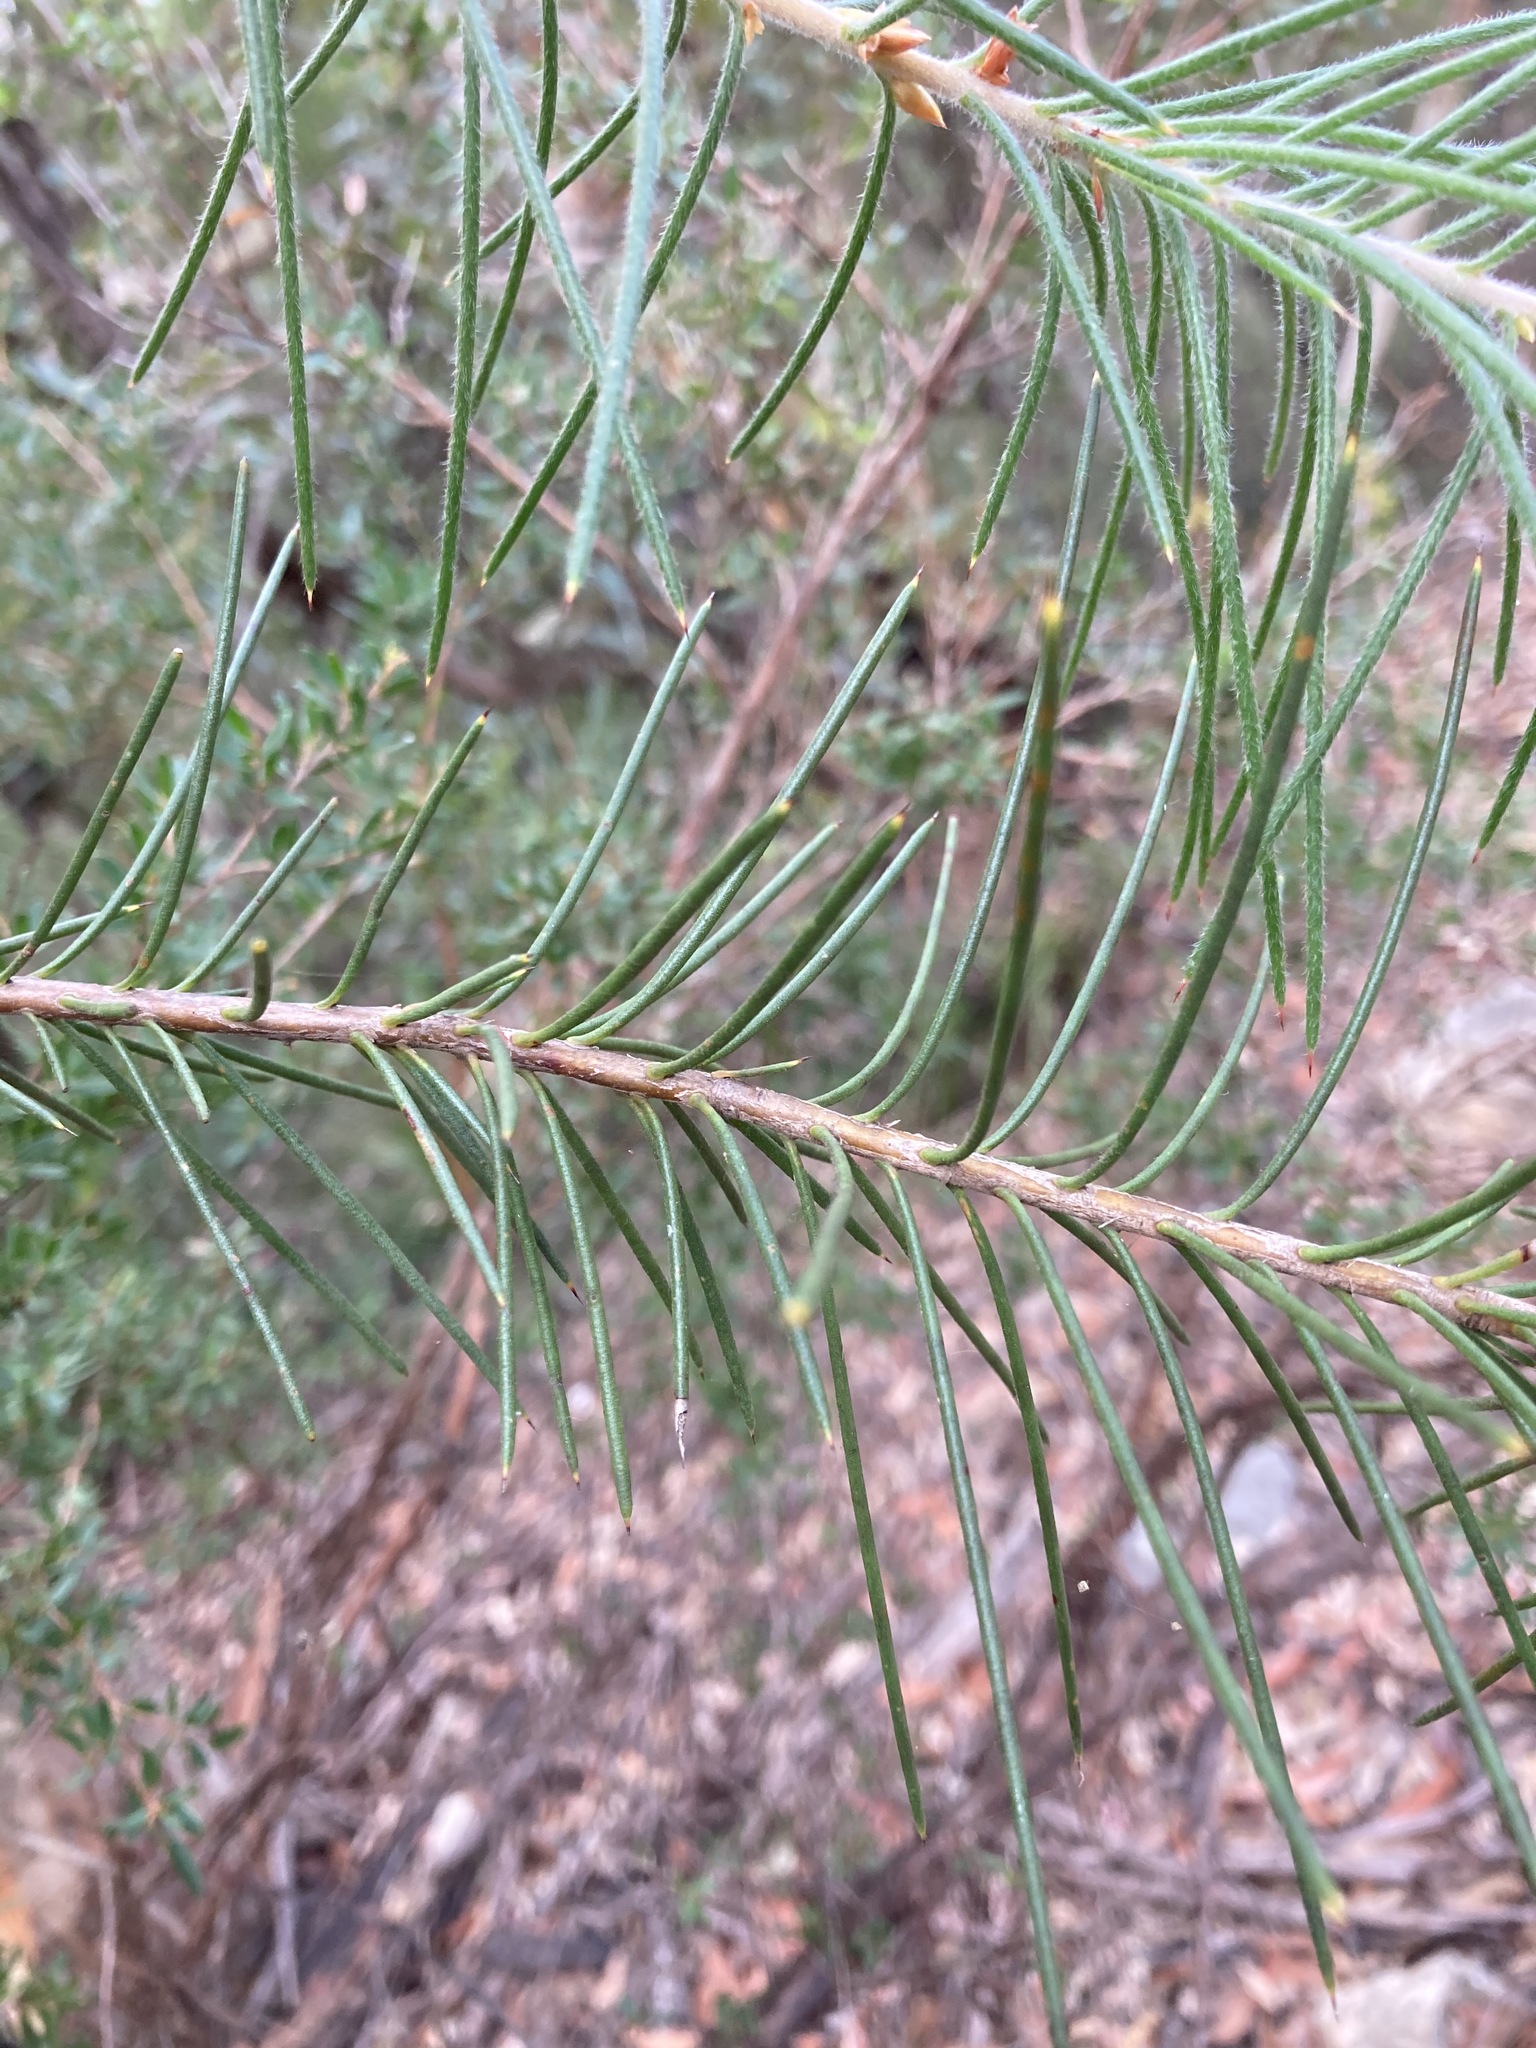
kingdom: Plantae
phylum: Tracheophyta
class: Magnoliopsida
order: Proteales
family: Proteaceae
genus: Hakea
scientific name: Hakea gibbosa
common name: Rock hakea
